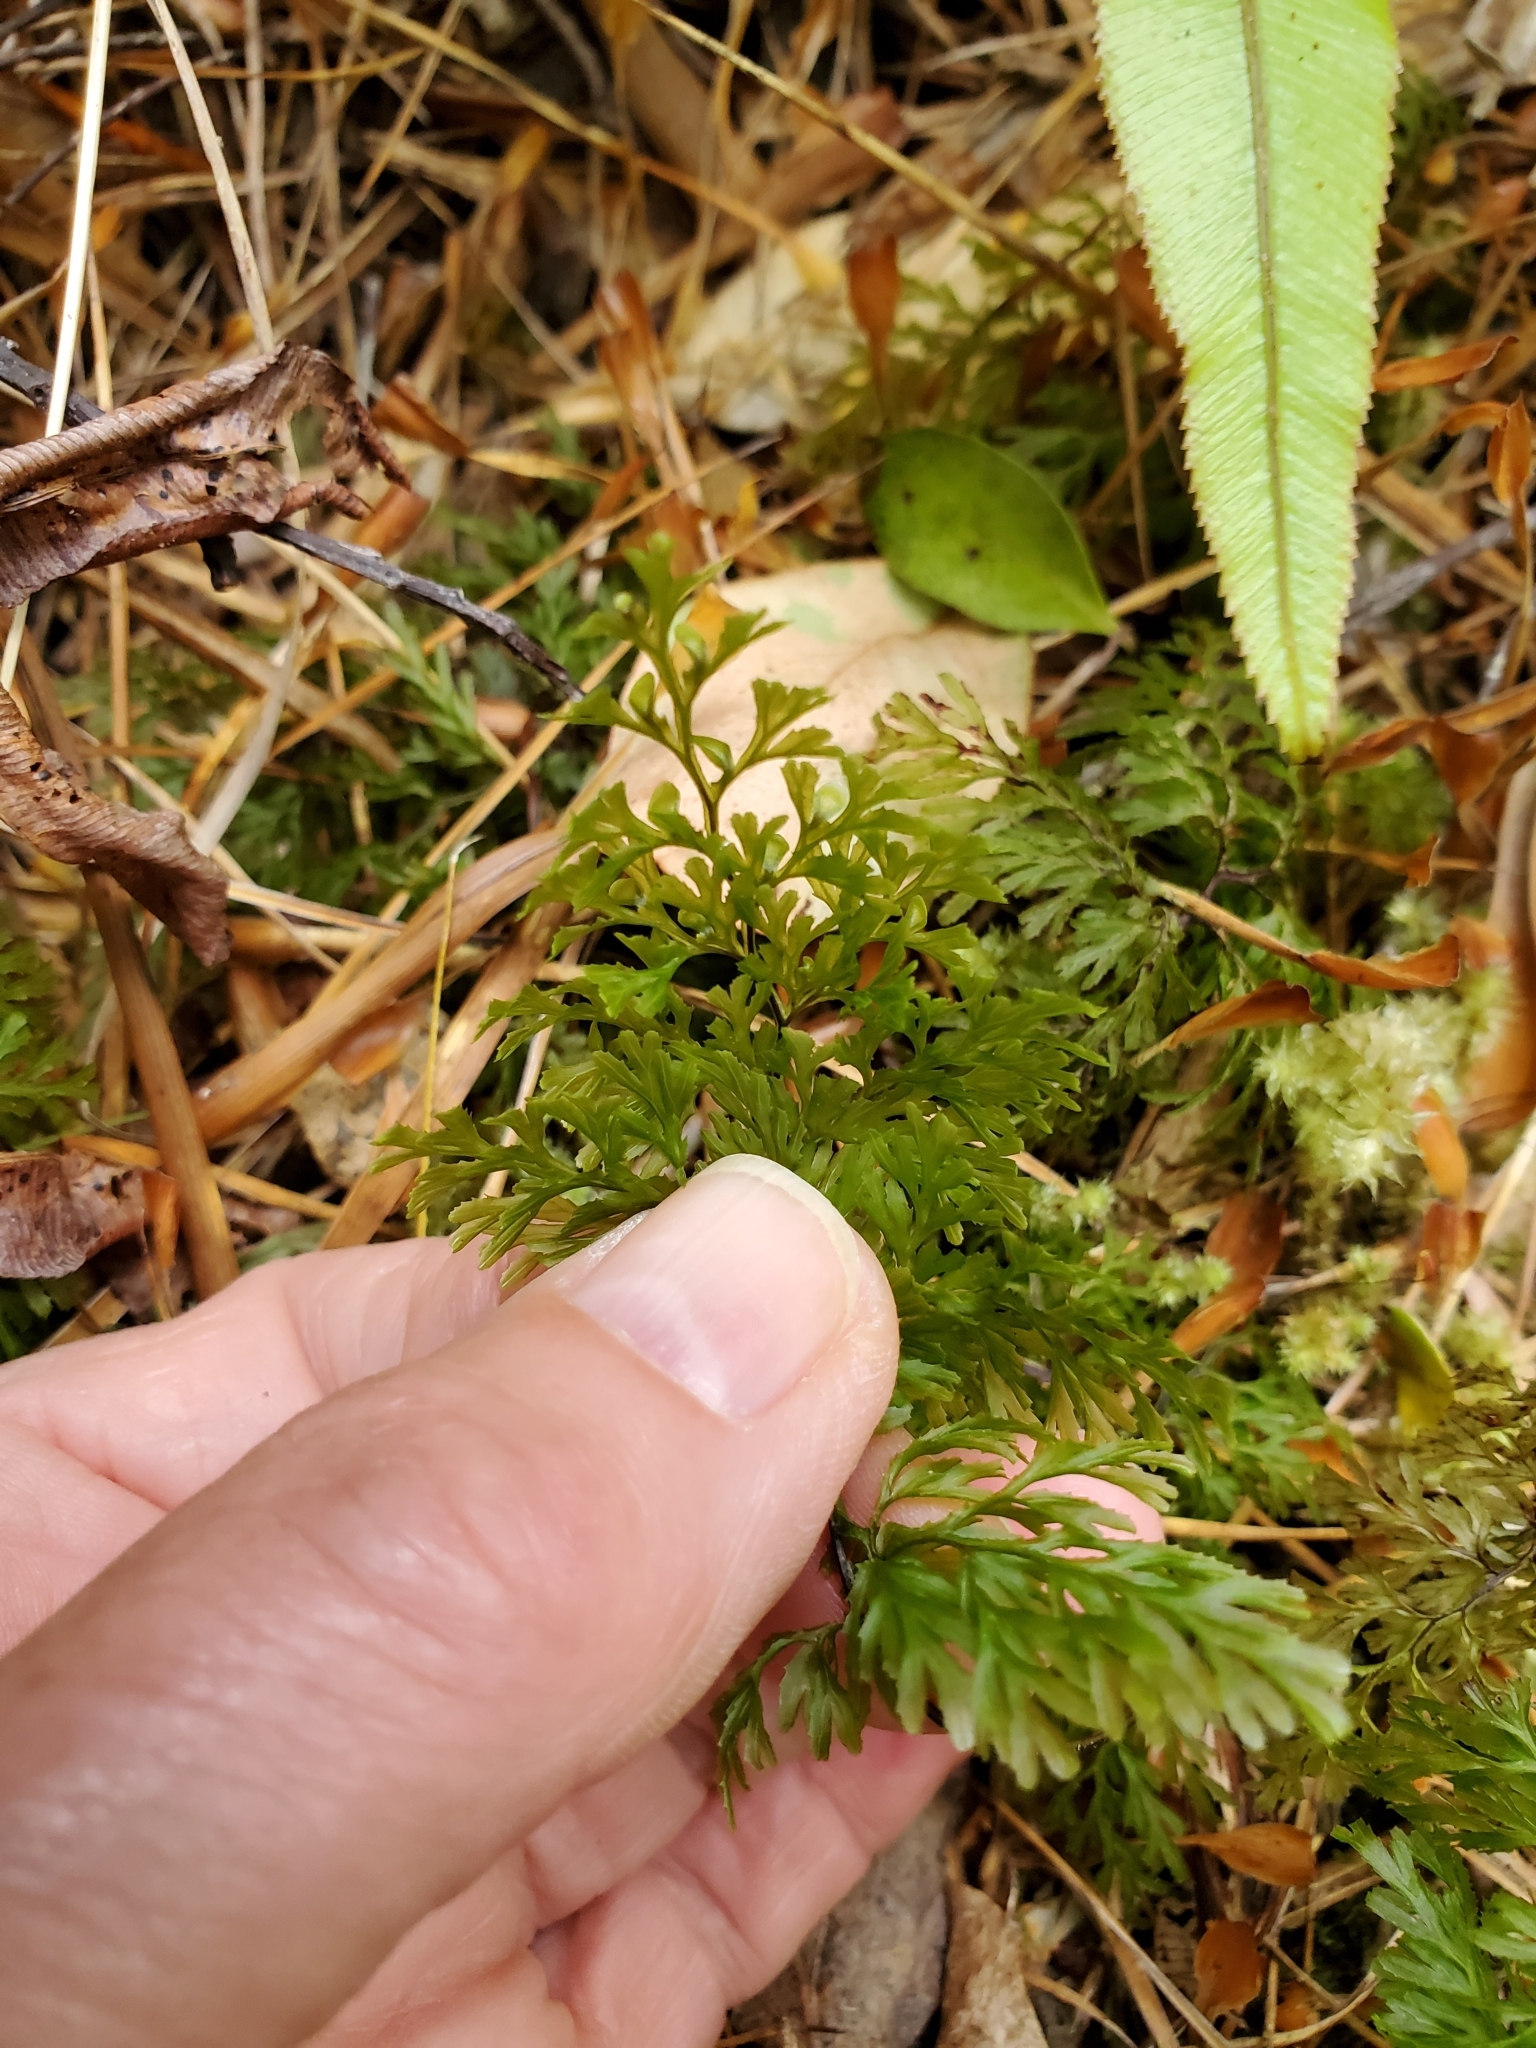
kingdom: Plantae
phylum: Tracheophyta
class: Polypodiopsida
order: Hymenophyllales
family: Hymenophyllaceae
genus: Hymenophyllum
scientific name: Hymenophyllum revolutum
